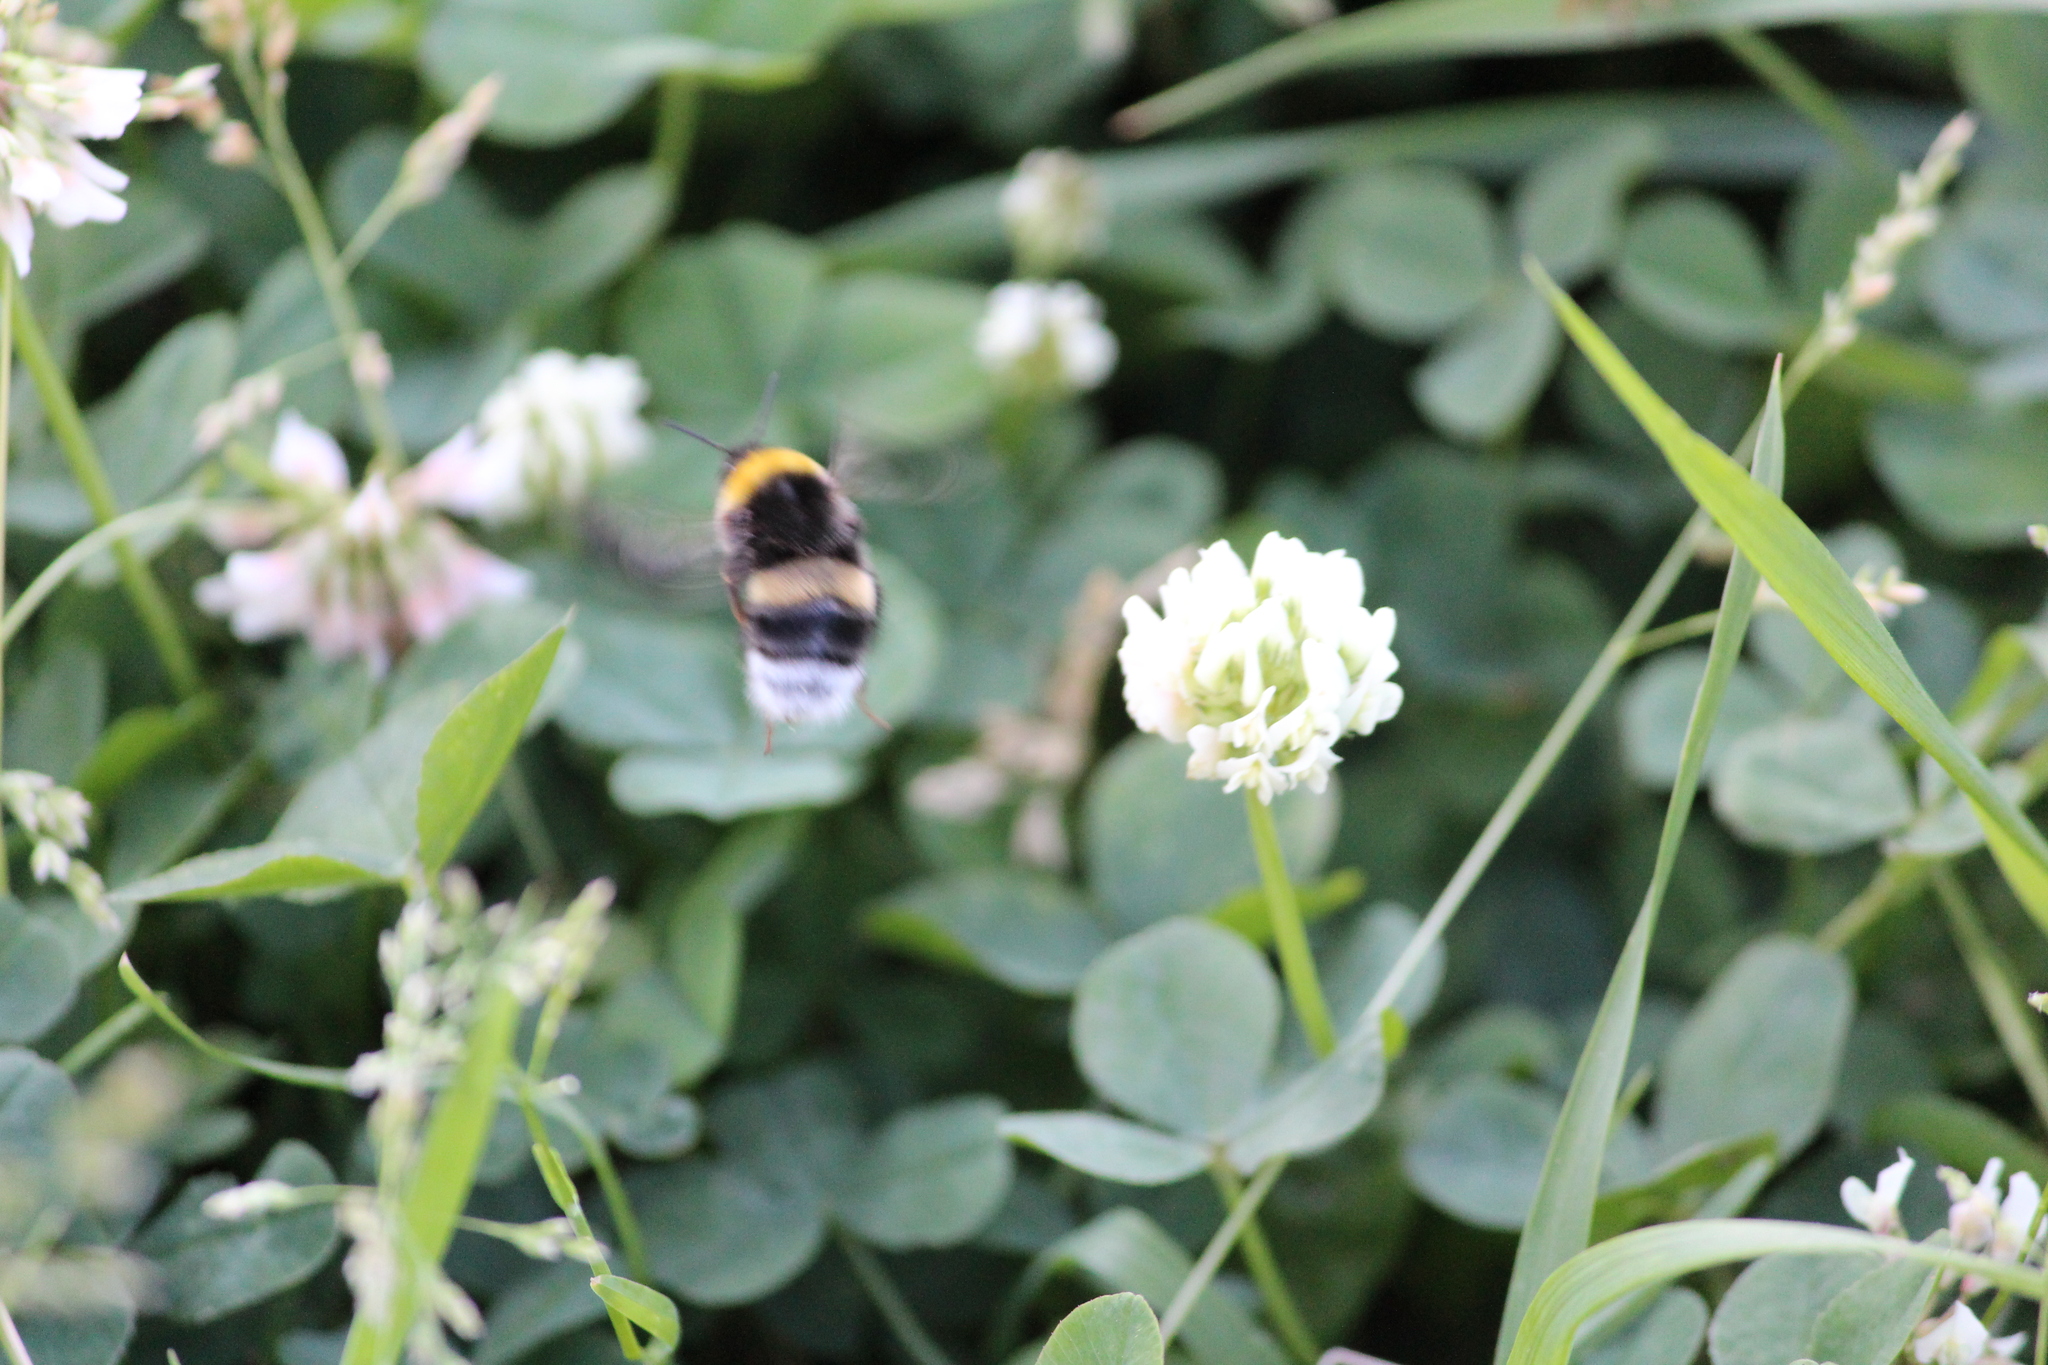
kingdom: Animalia
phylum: Arthropoda
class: Insecta
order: Hymenoptera
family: Apidae
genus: Bombus
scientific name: Bombus
